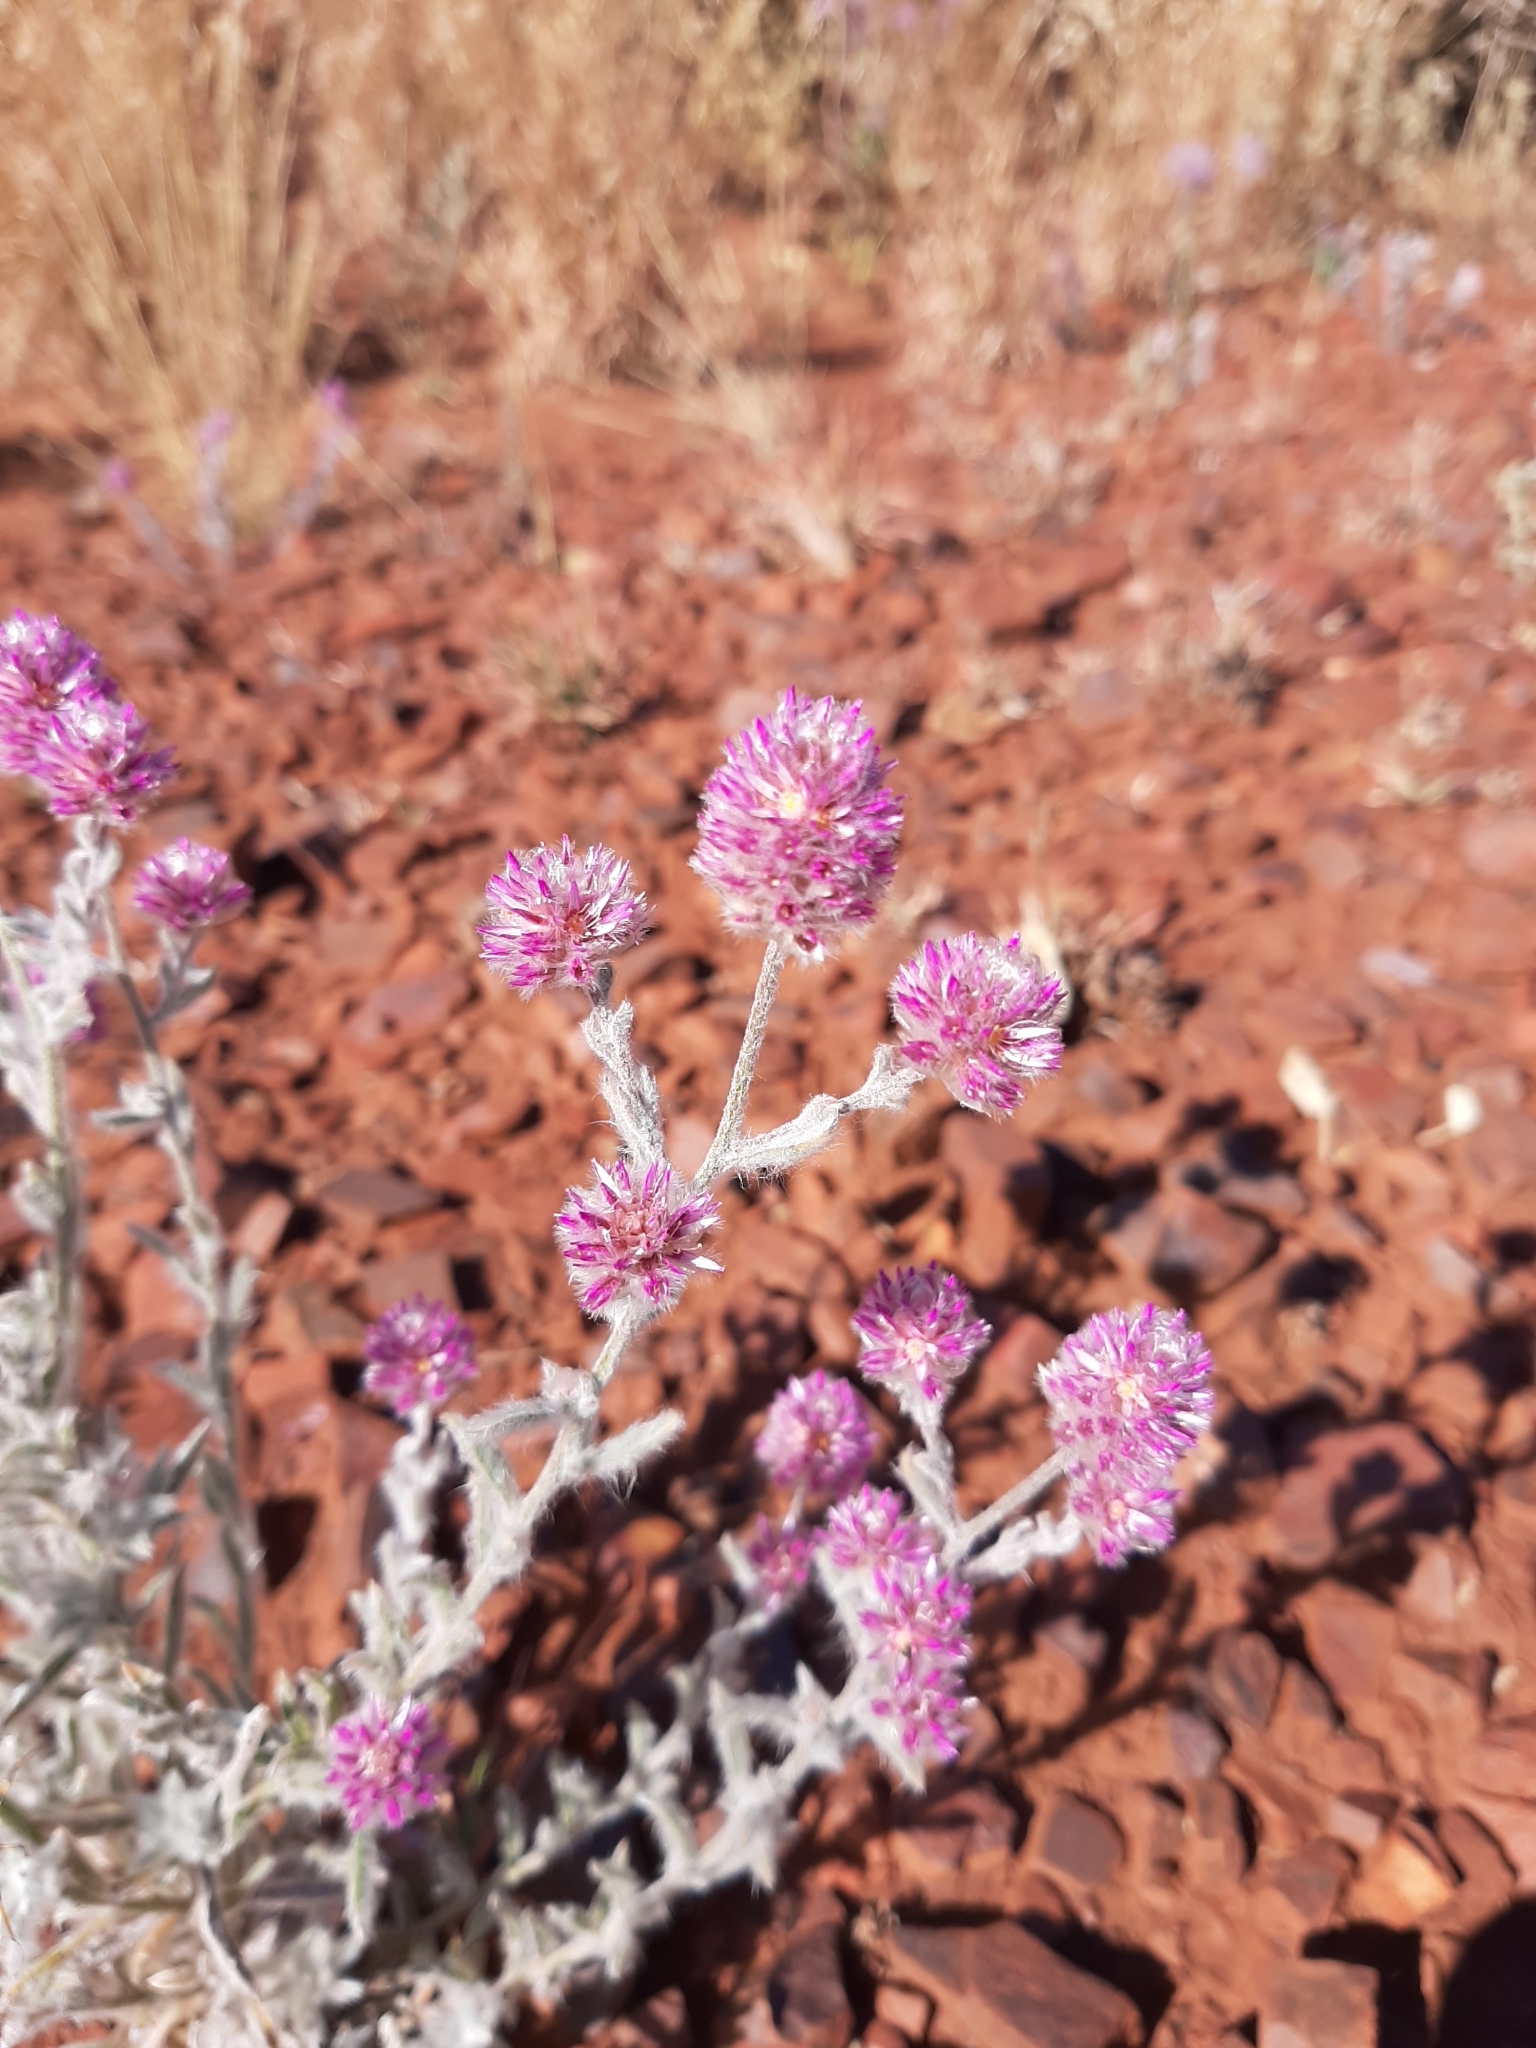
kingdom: Plantae
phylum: Tracheophyta
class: Magnoliopsida
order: Caryophyllales
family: Amaranthaceae
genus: Ptilotus
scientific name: Ptilotus helipteroides
